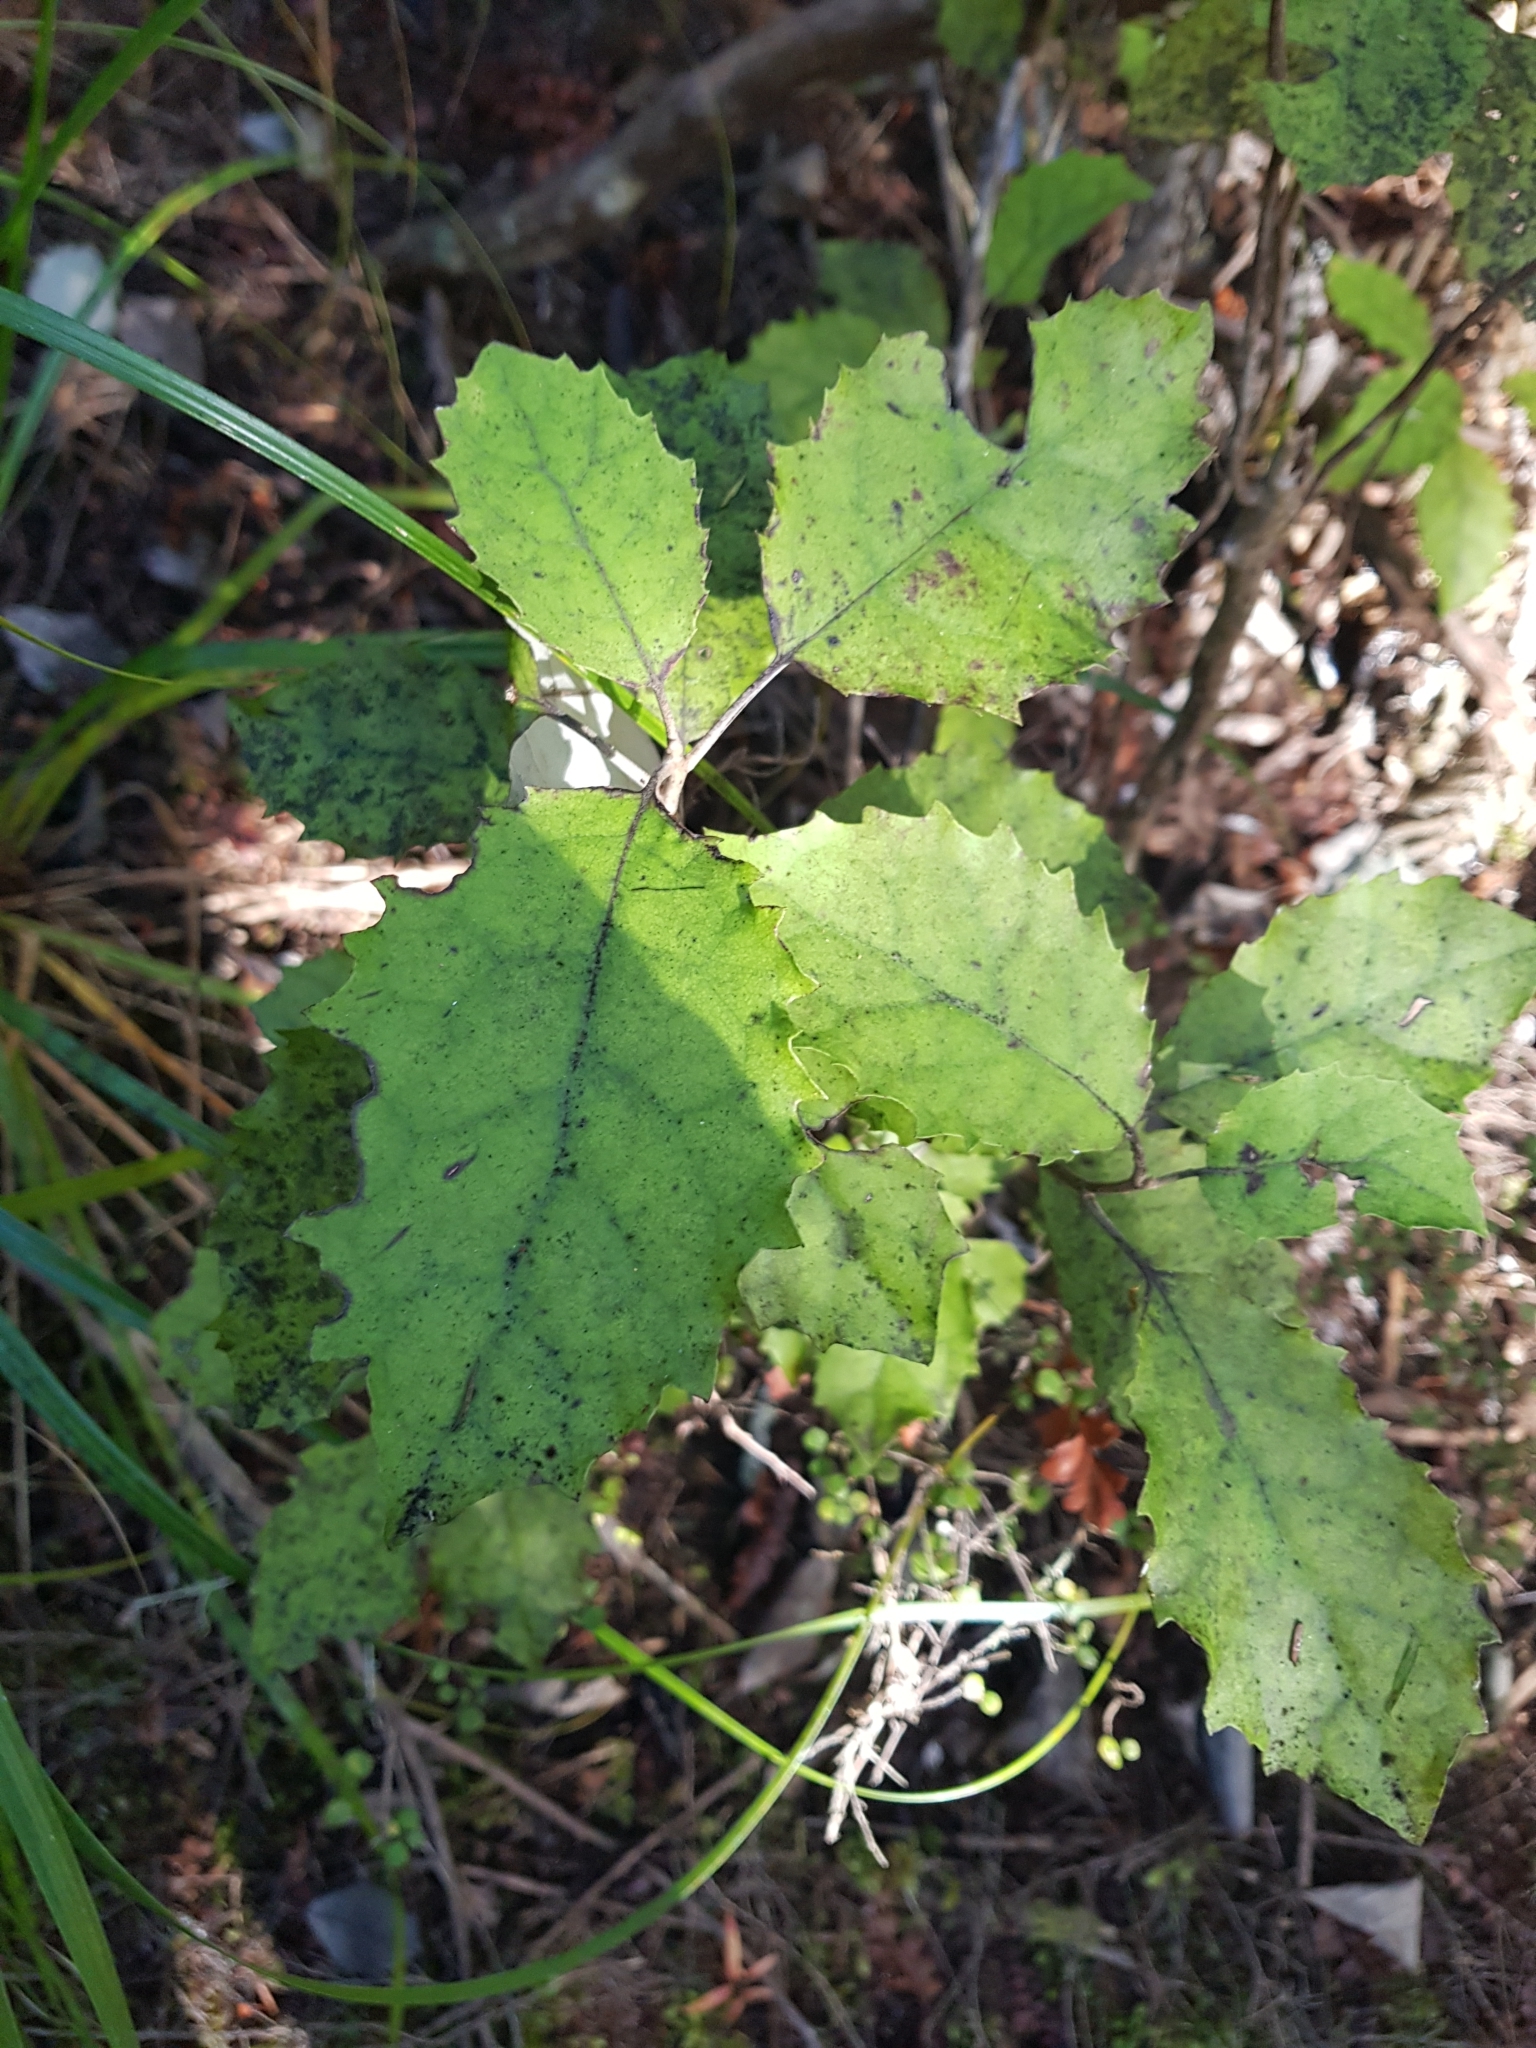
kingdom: Plantae
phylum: Tracheophyta
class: Magnoliopsida
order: Asterales
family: Asteraceae
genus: Olearia
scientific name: Olearia rani
